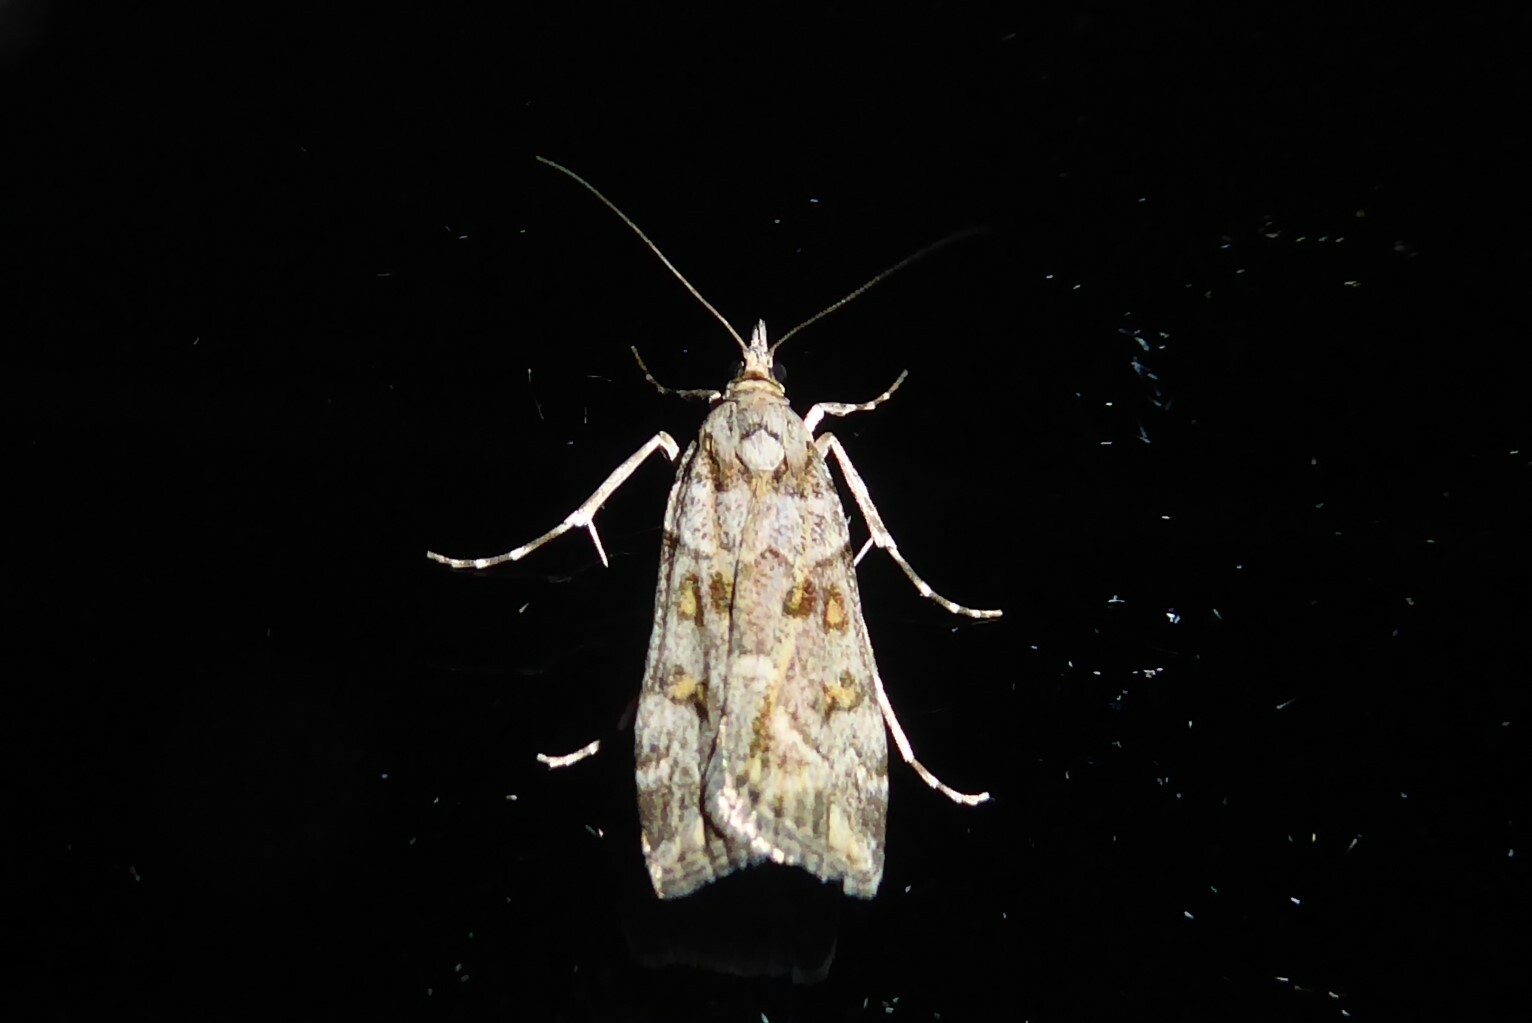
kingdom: Animalia
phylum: Arthropoda
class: Insecta
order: Lepidoptera
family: Crambidae
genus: Scoparia
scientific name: Scoparia tetracycla
